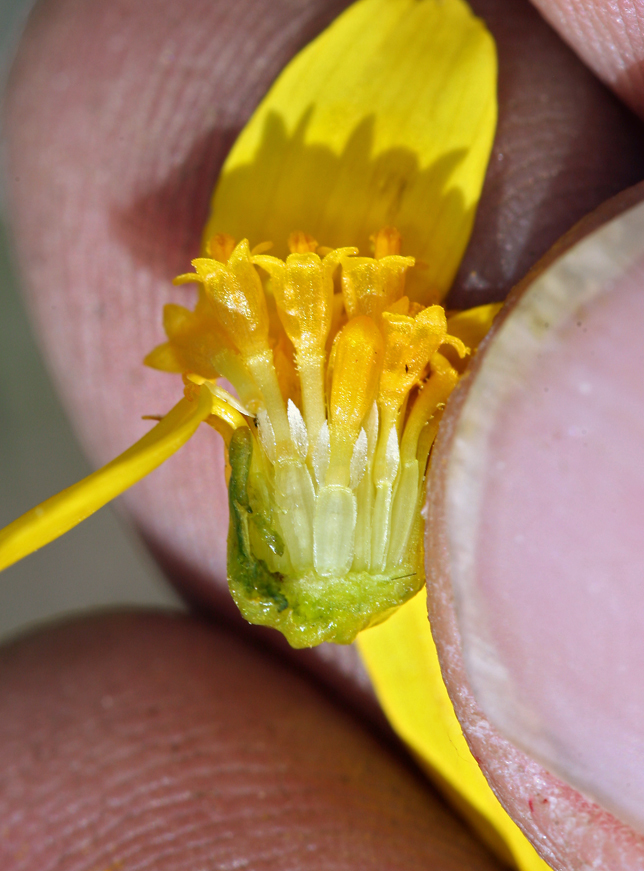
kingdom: Plantae
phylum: Tracheophyta
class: Magnoliopsida
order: Asterales
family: Asteraceae
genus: Coreopsis
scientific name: Coreopsis bigelovii
